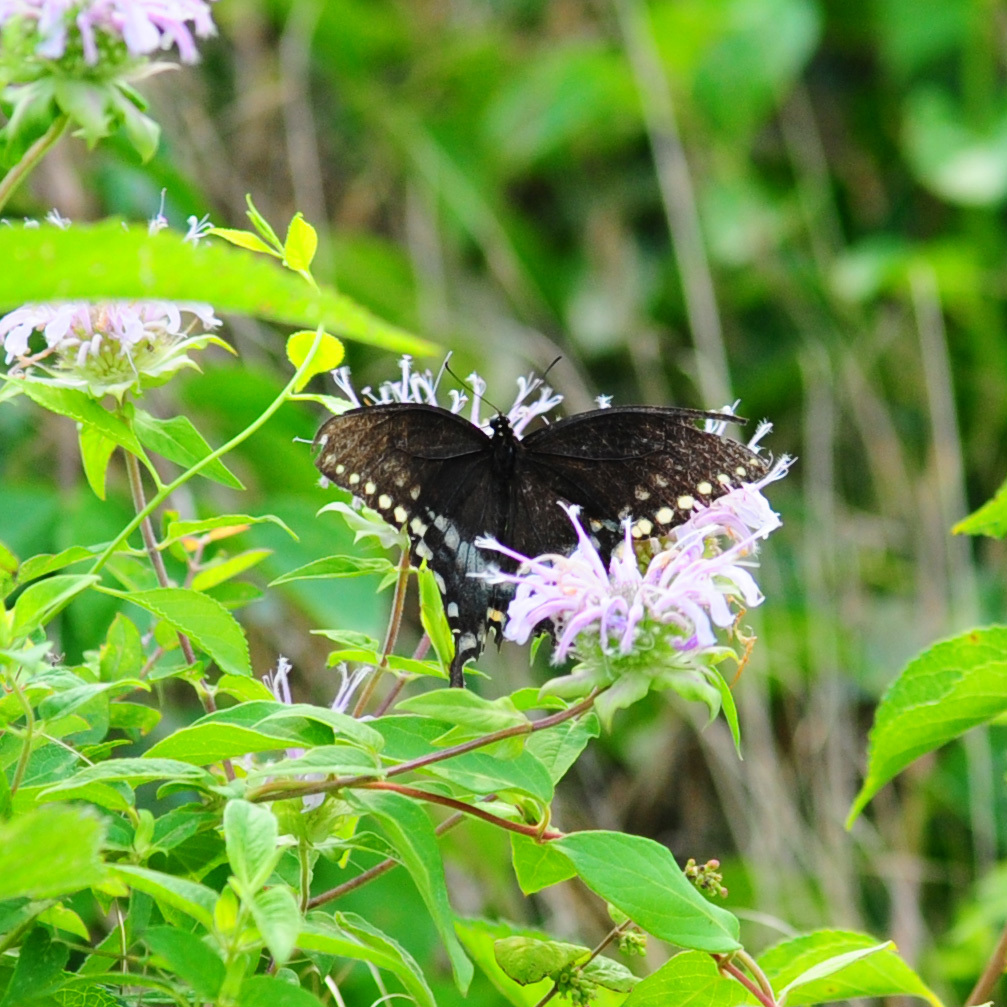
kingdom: Animalia
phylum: Arthropoda
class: Insecta
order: Lepidoptera
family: Papilionidae
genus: Papilio
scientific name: Papilio troilus
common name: Spicebush swallowtail
